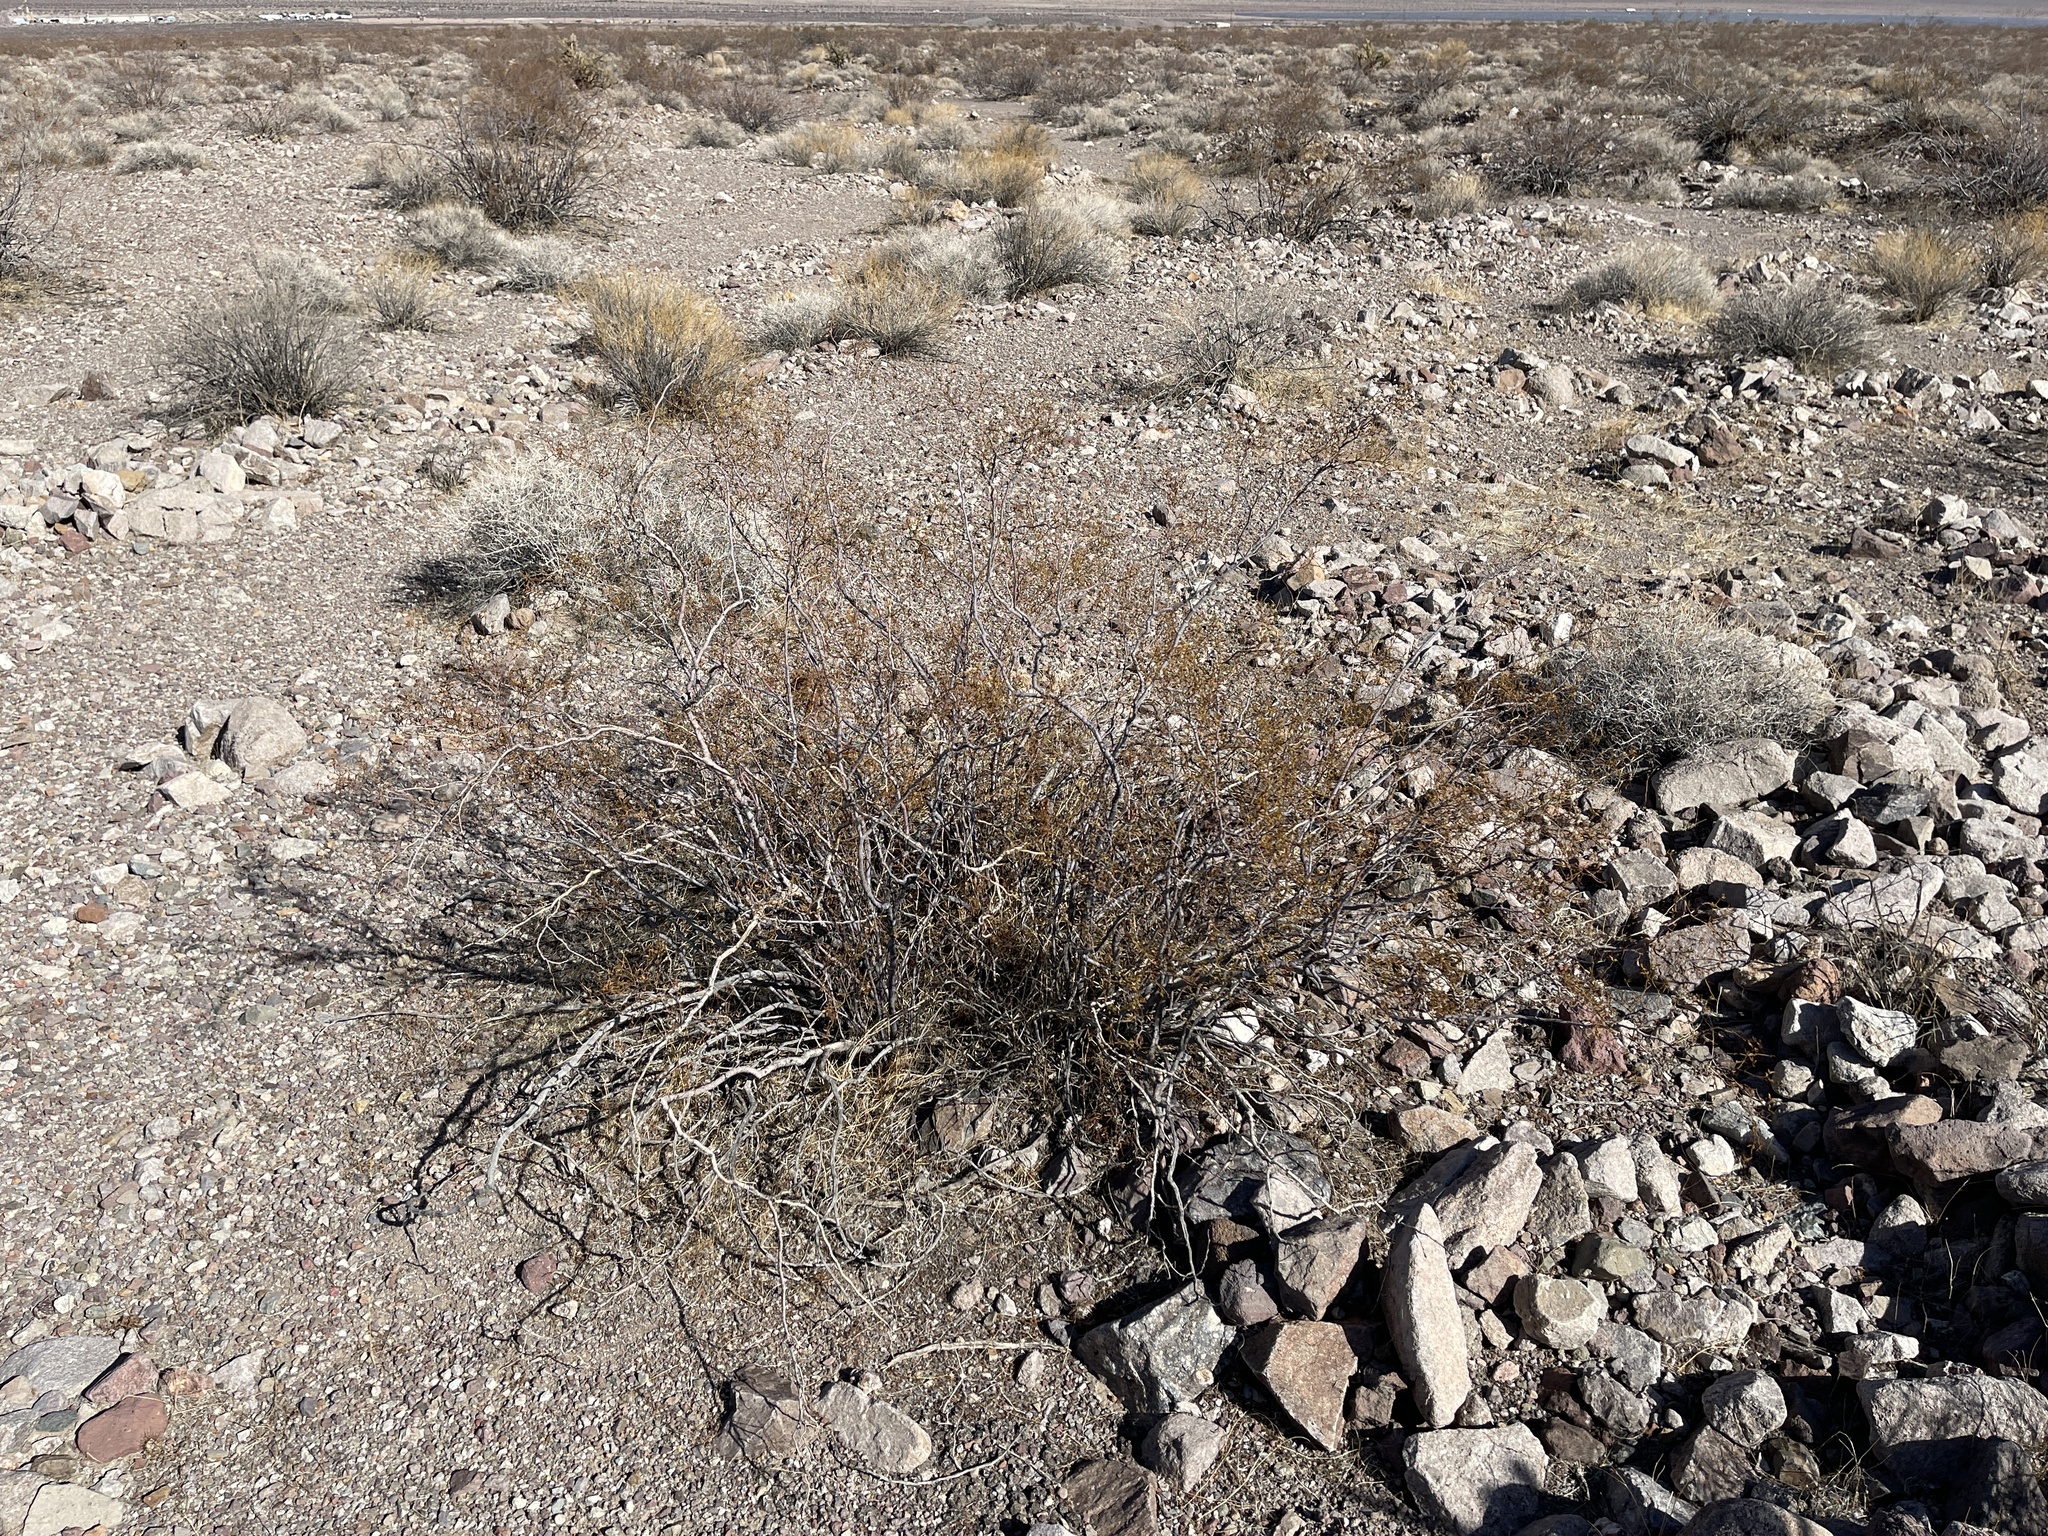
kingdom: Plantae
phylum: Tracheophyta
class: Magnoliopsida
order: Zygophyllales
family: Zygophyllaceae
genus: Larrea
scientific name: Larrea tridentata
